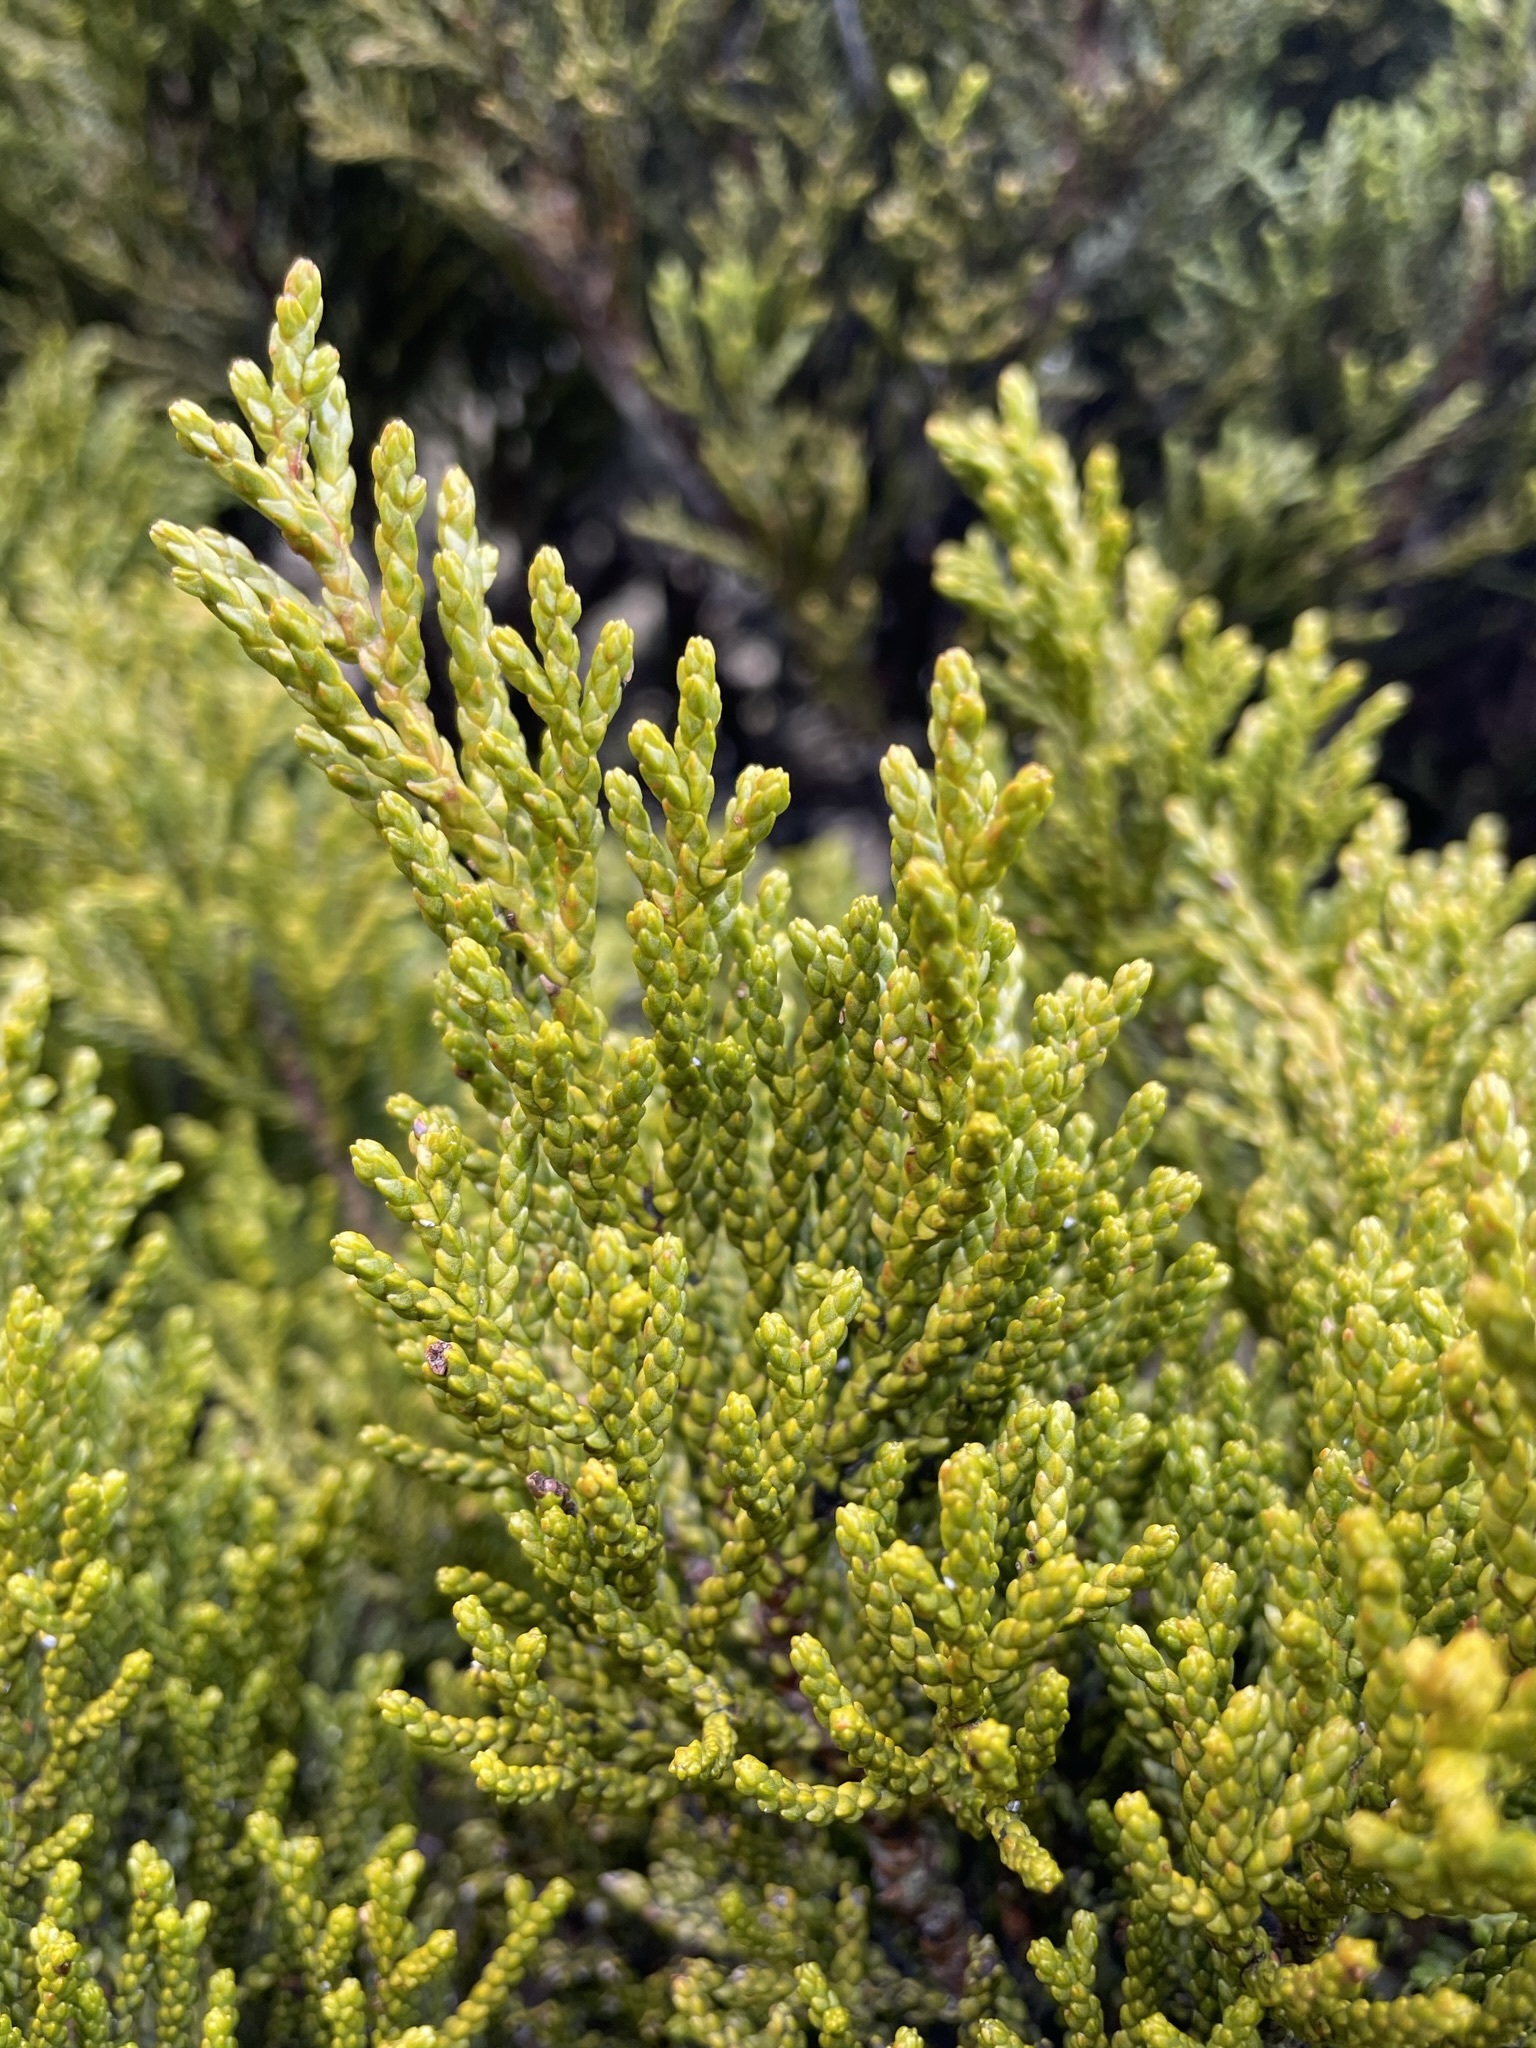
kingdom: Plantae
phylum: Tracheophyta
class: Pinopsida
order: Pinales
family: Podocarpaceae
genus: Halocarpus
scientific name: Halocarpus biformis
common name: Alpine tarwood
